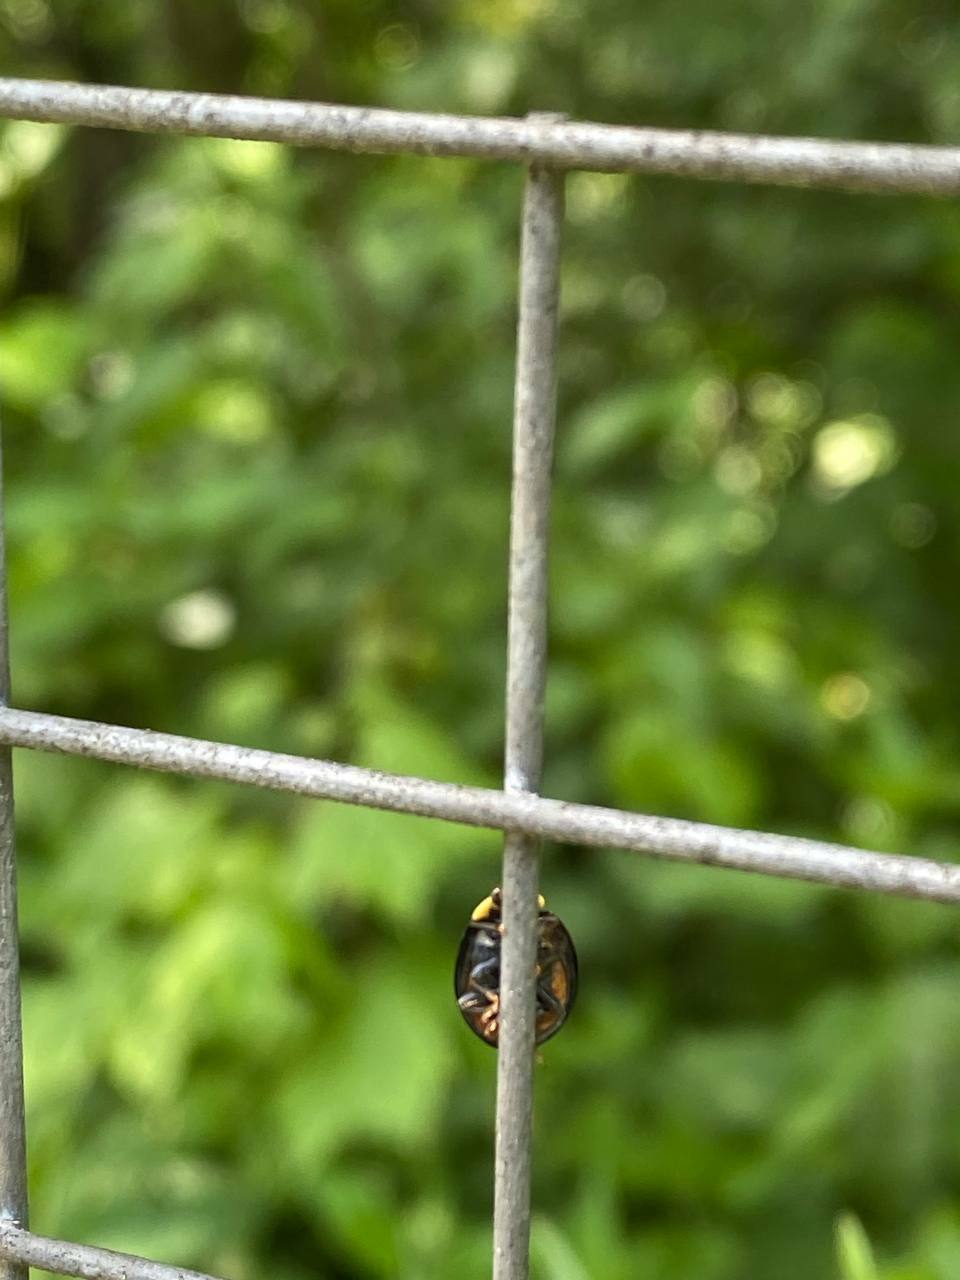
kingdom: Animalia
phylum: Arthropoda
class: Insecta
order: Coleoptera
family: Coccinellidae
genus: Harmonia
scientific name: Harmonia axyridis
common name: Harlequin ladybird
